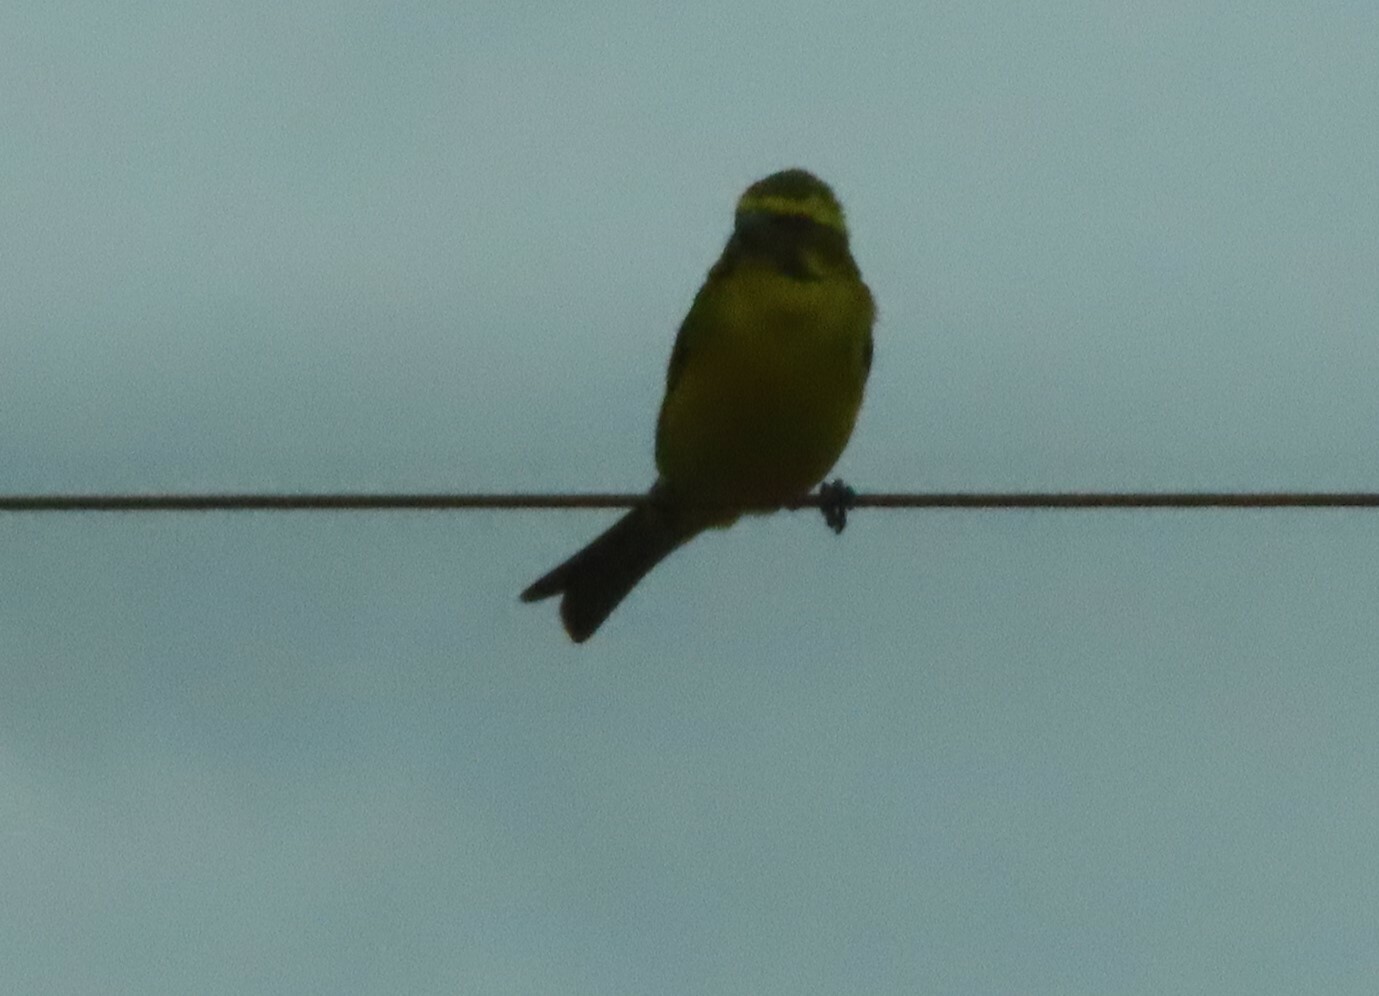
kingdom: Animalia
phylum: Chordata
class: Aves
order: Passeriformes
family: Fringillidae
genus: Crithagra
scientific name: Crithagra flaviventris
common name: Yellow canary
